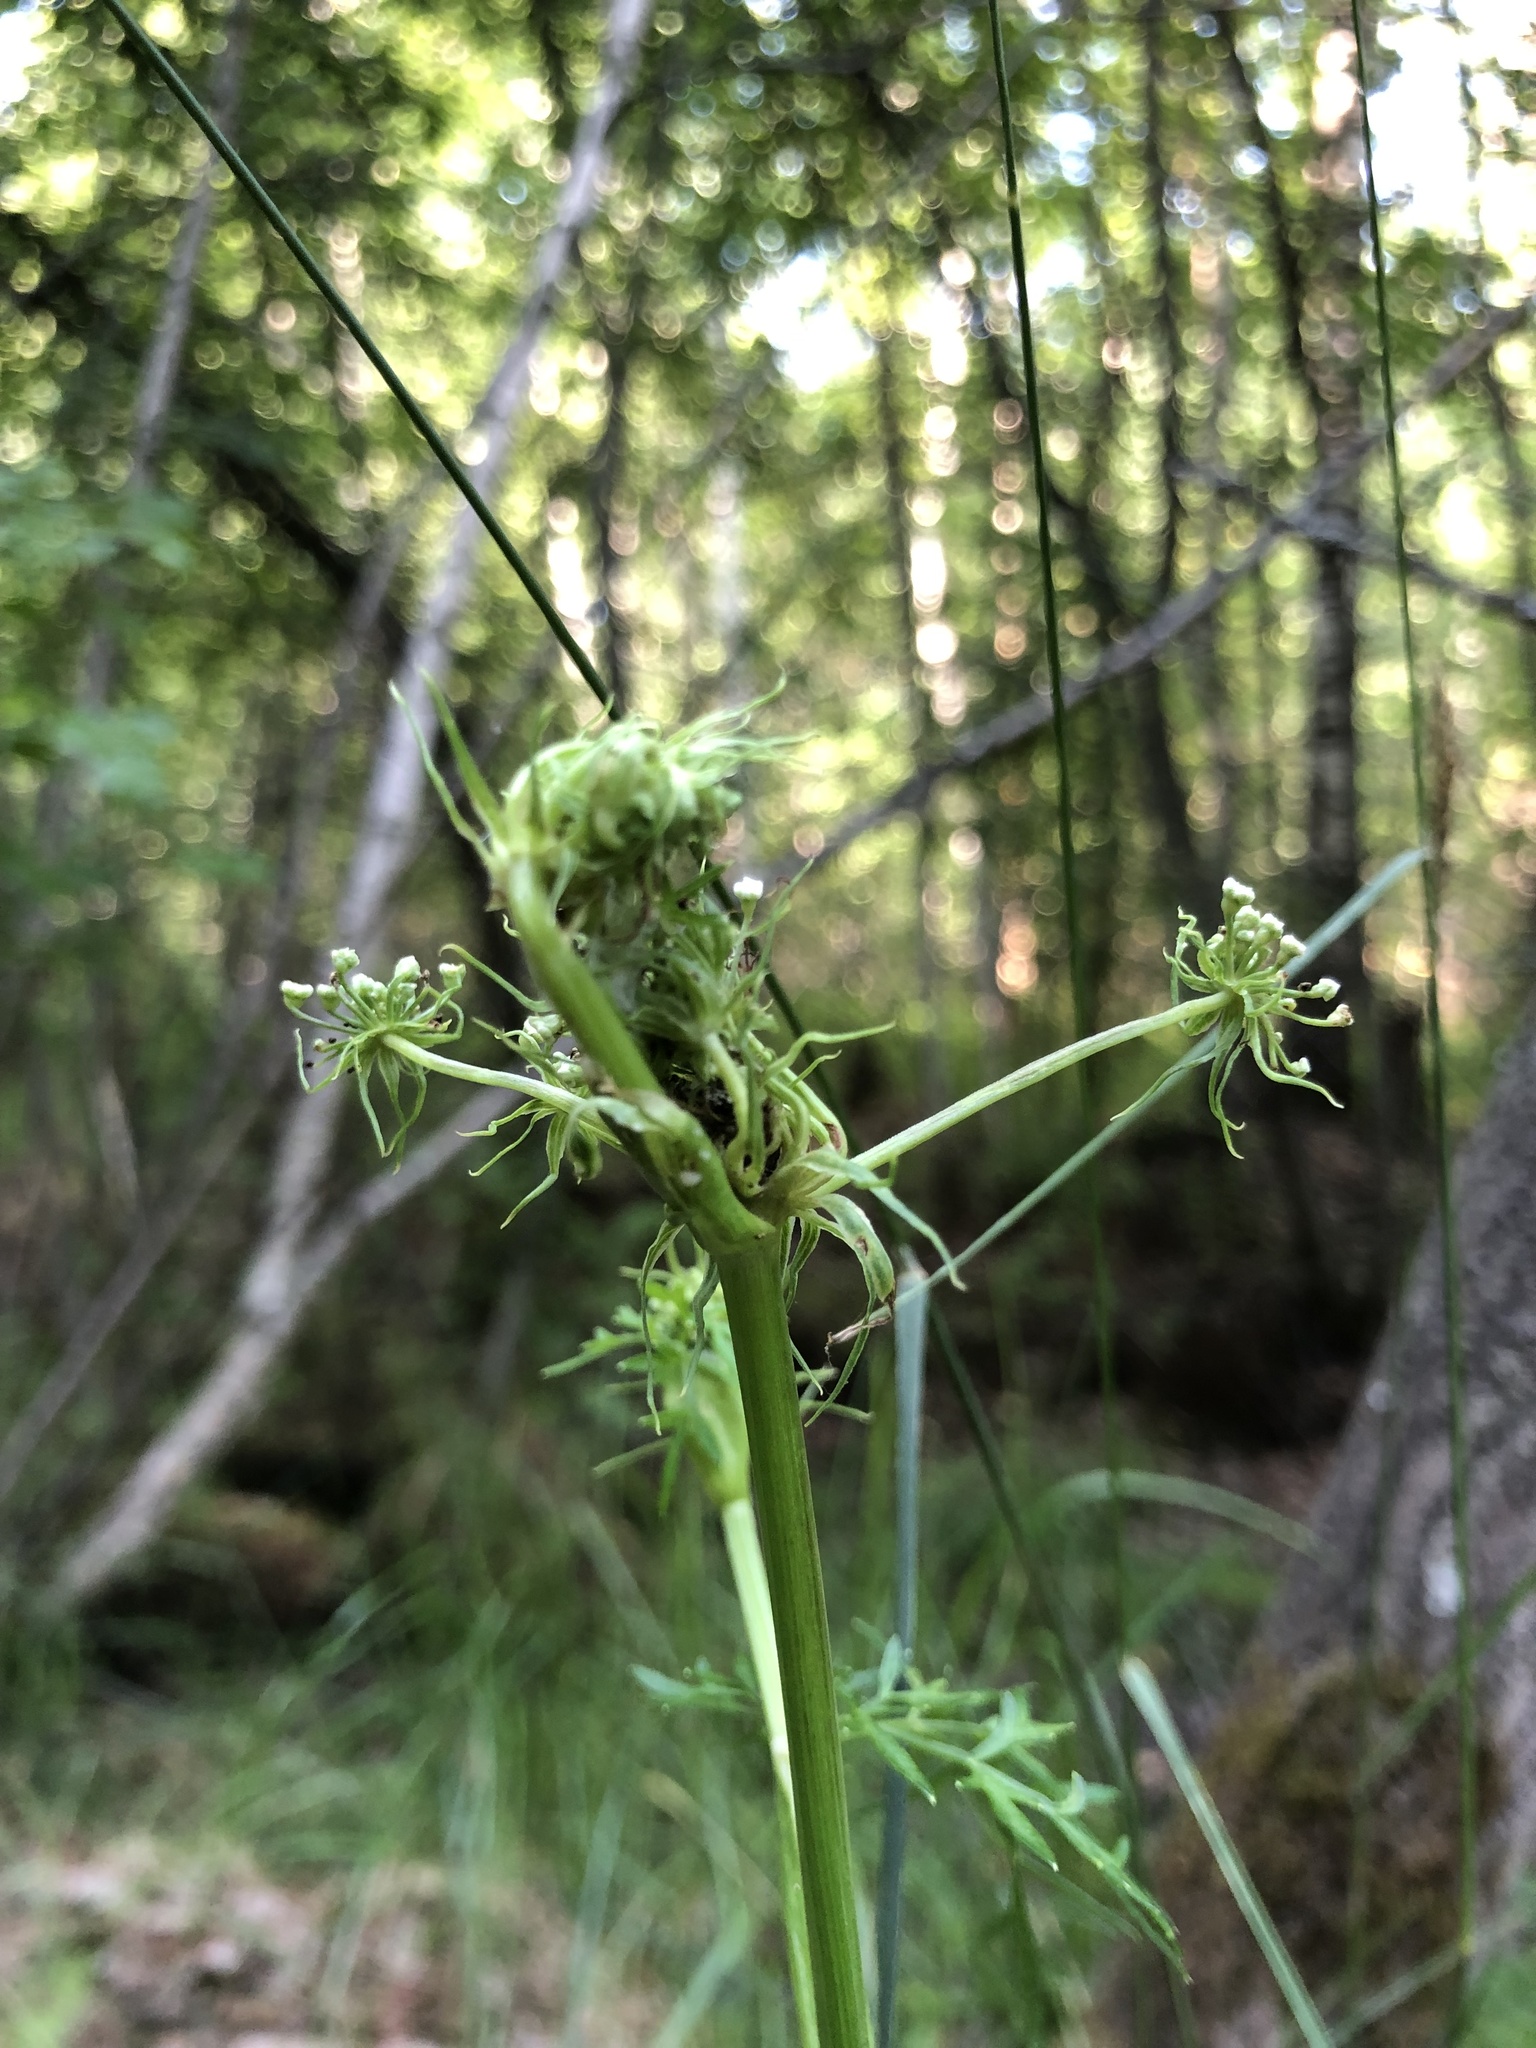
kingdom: Plantae
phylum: Tracheophyta
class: Magnoliopsida
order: Apiales
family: Apiaceae
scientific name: Apiaceae
